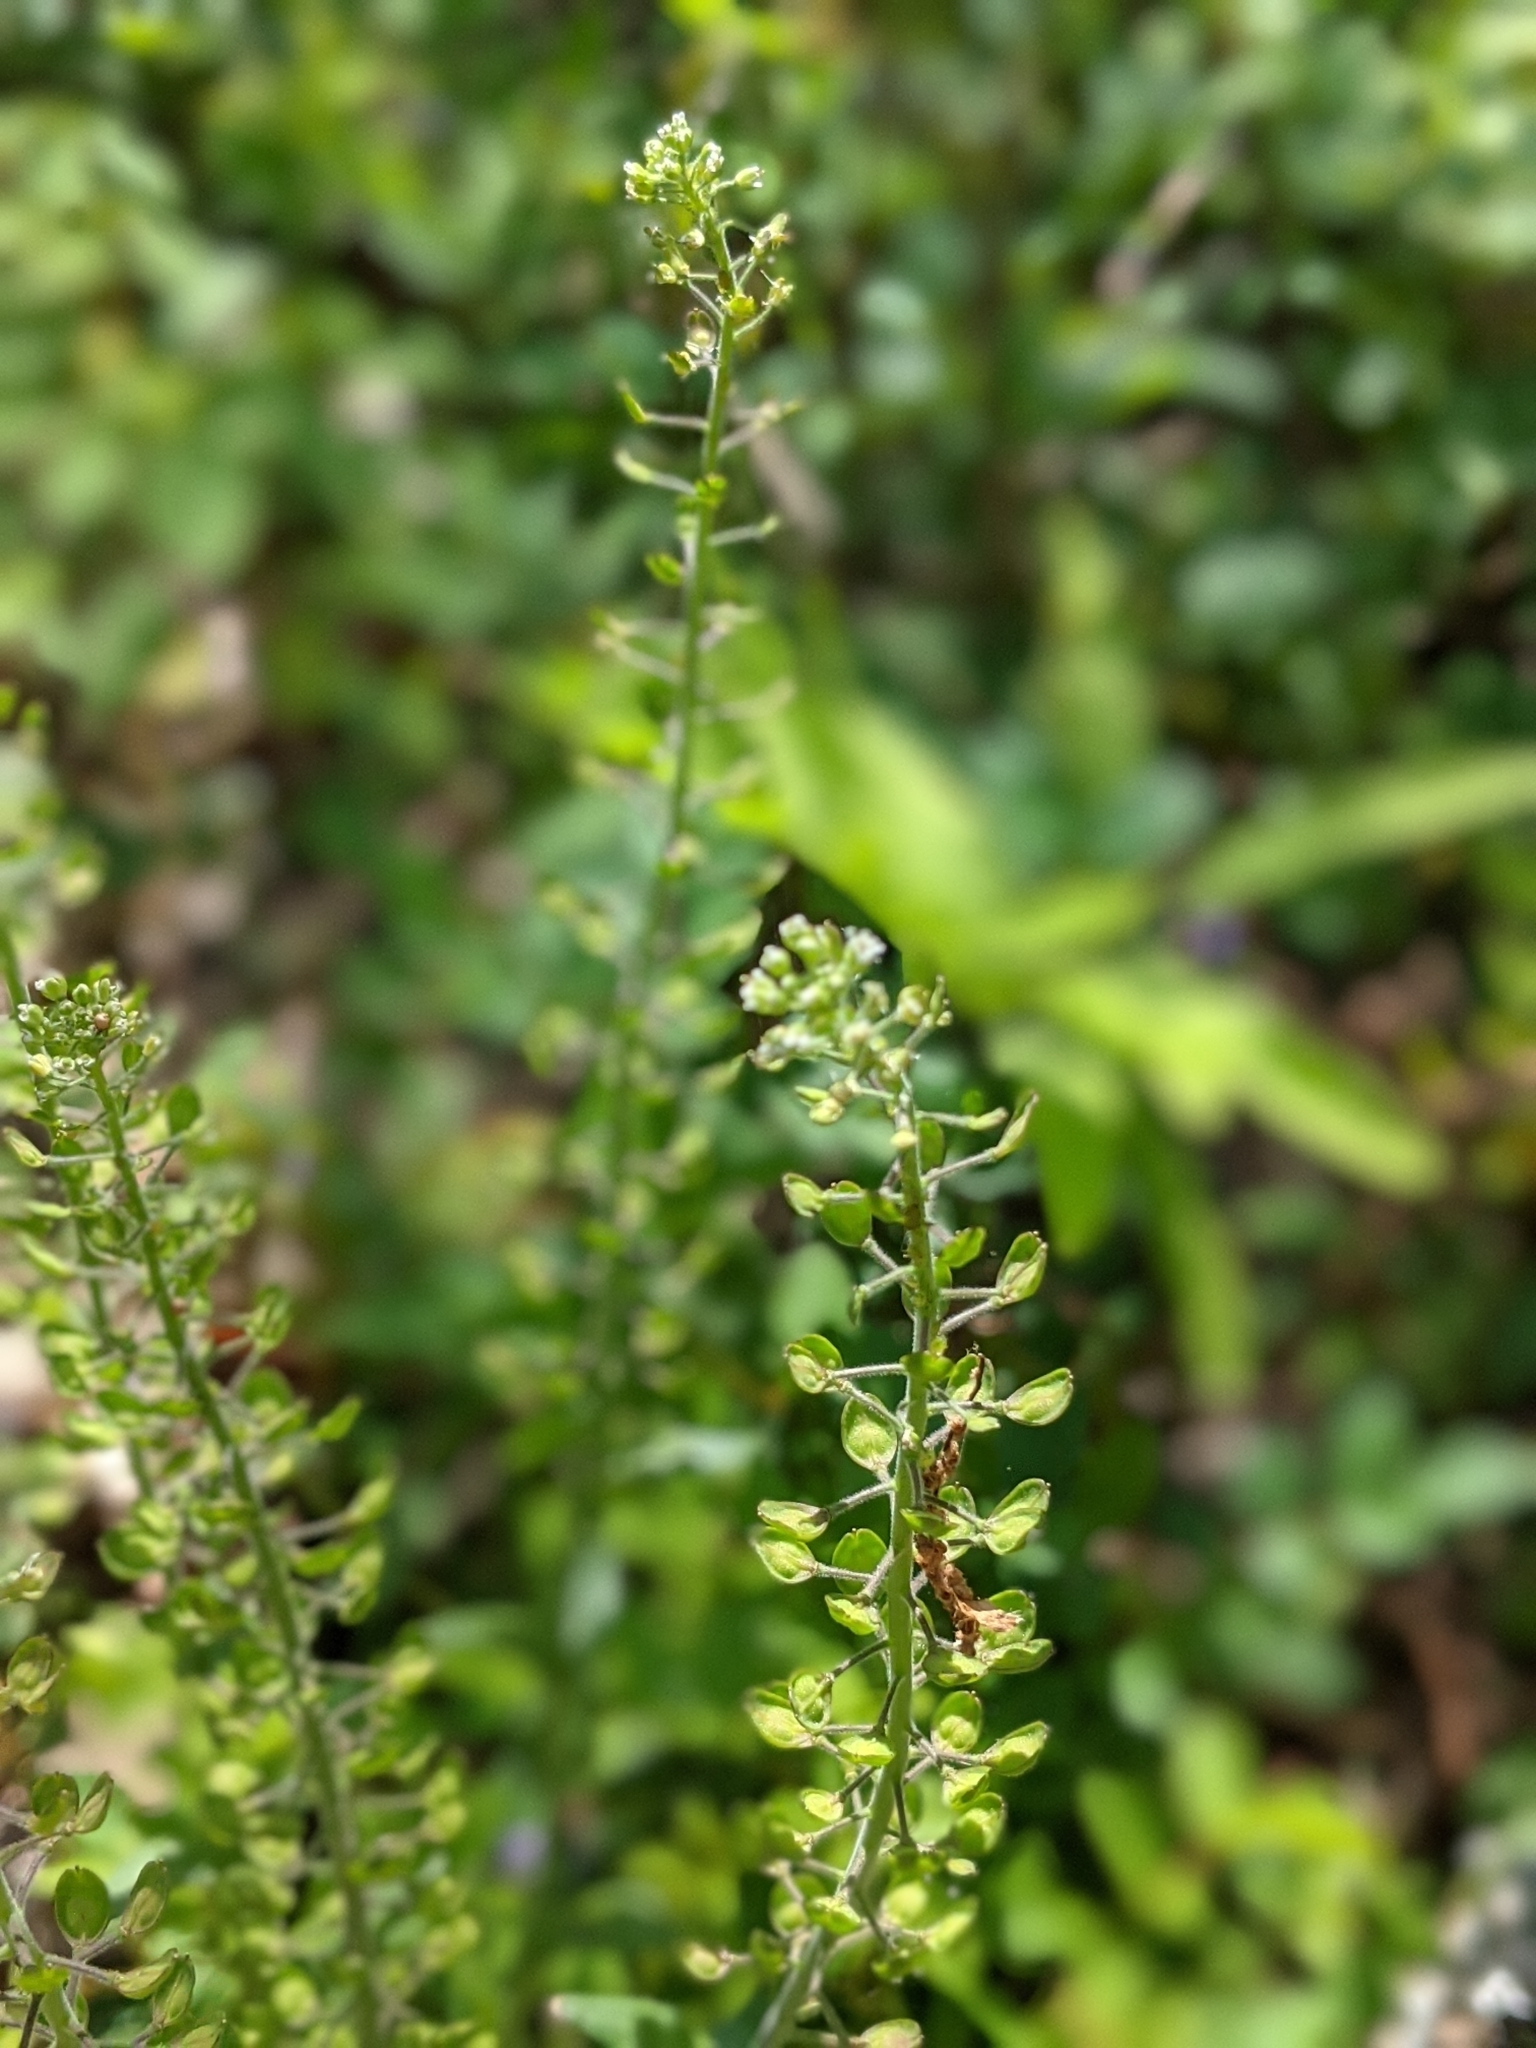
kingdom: Plantae
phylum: Tracheophyta
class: Magnoliopsida
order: Brassicales
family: Brassicaceae
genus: Lepidium
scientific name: Lepidium campestre
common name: Field pepperwort
